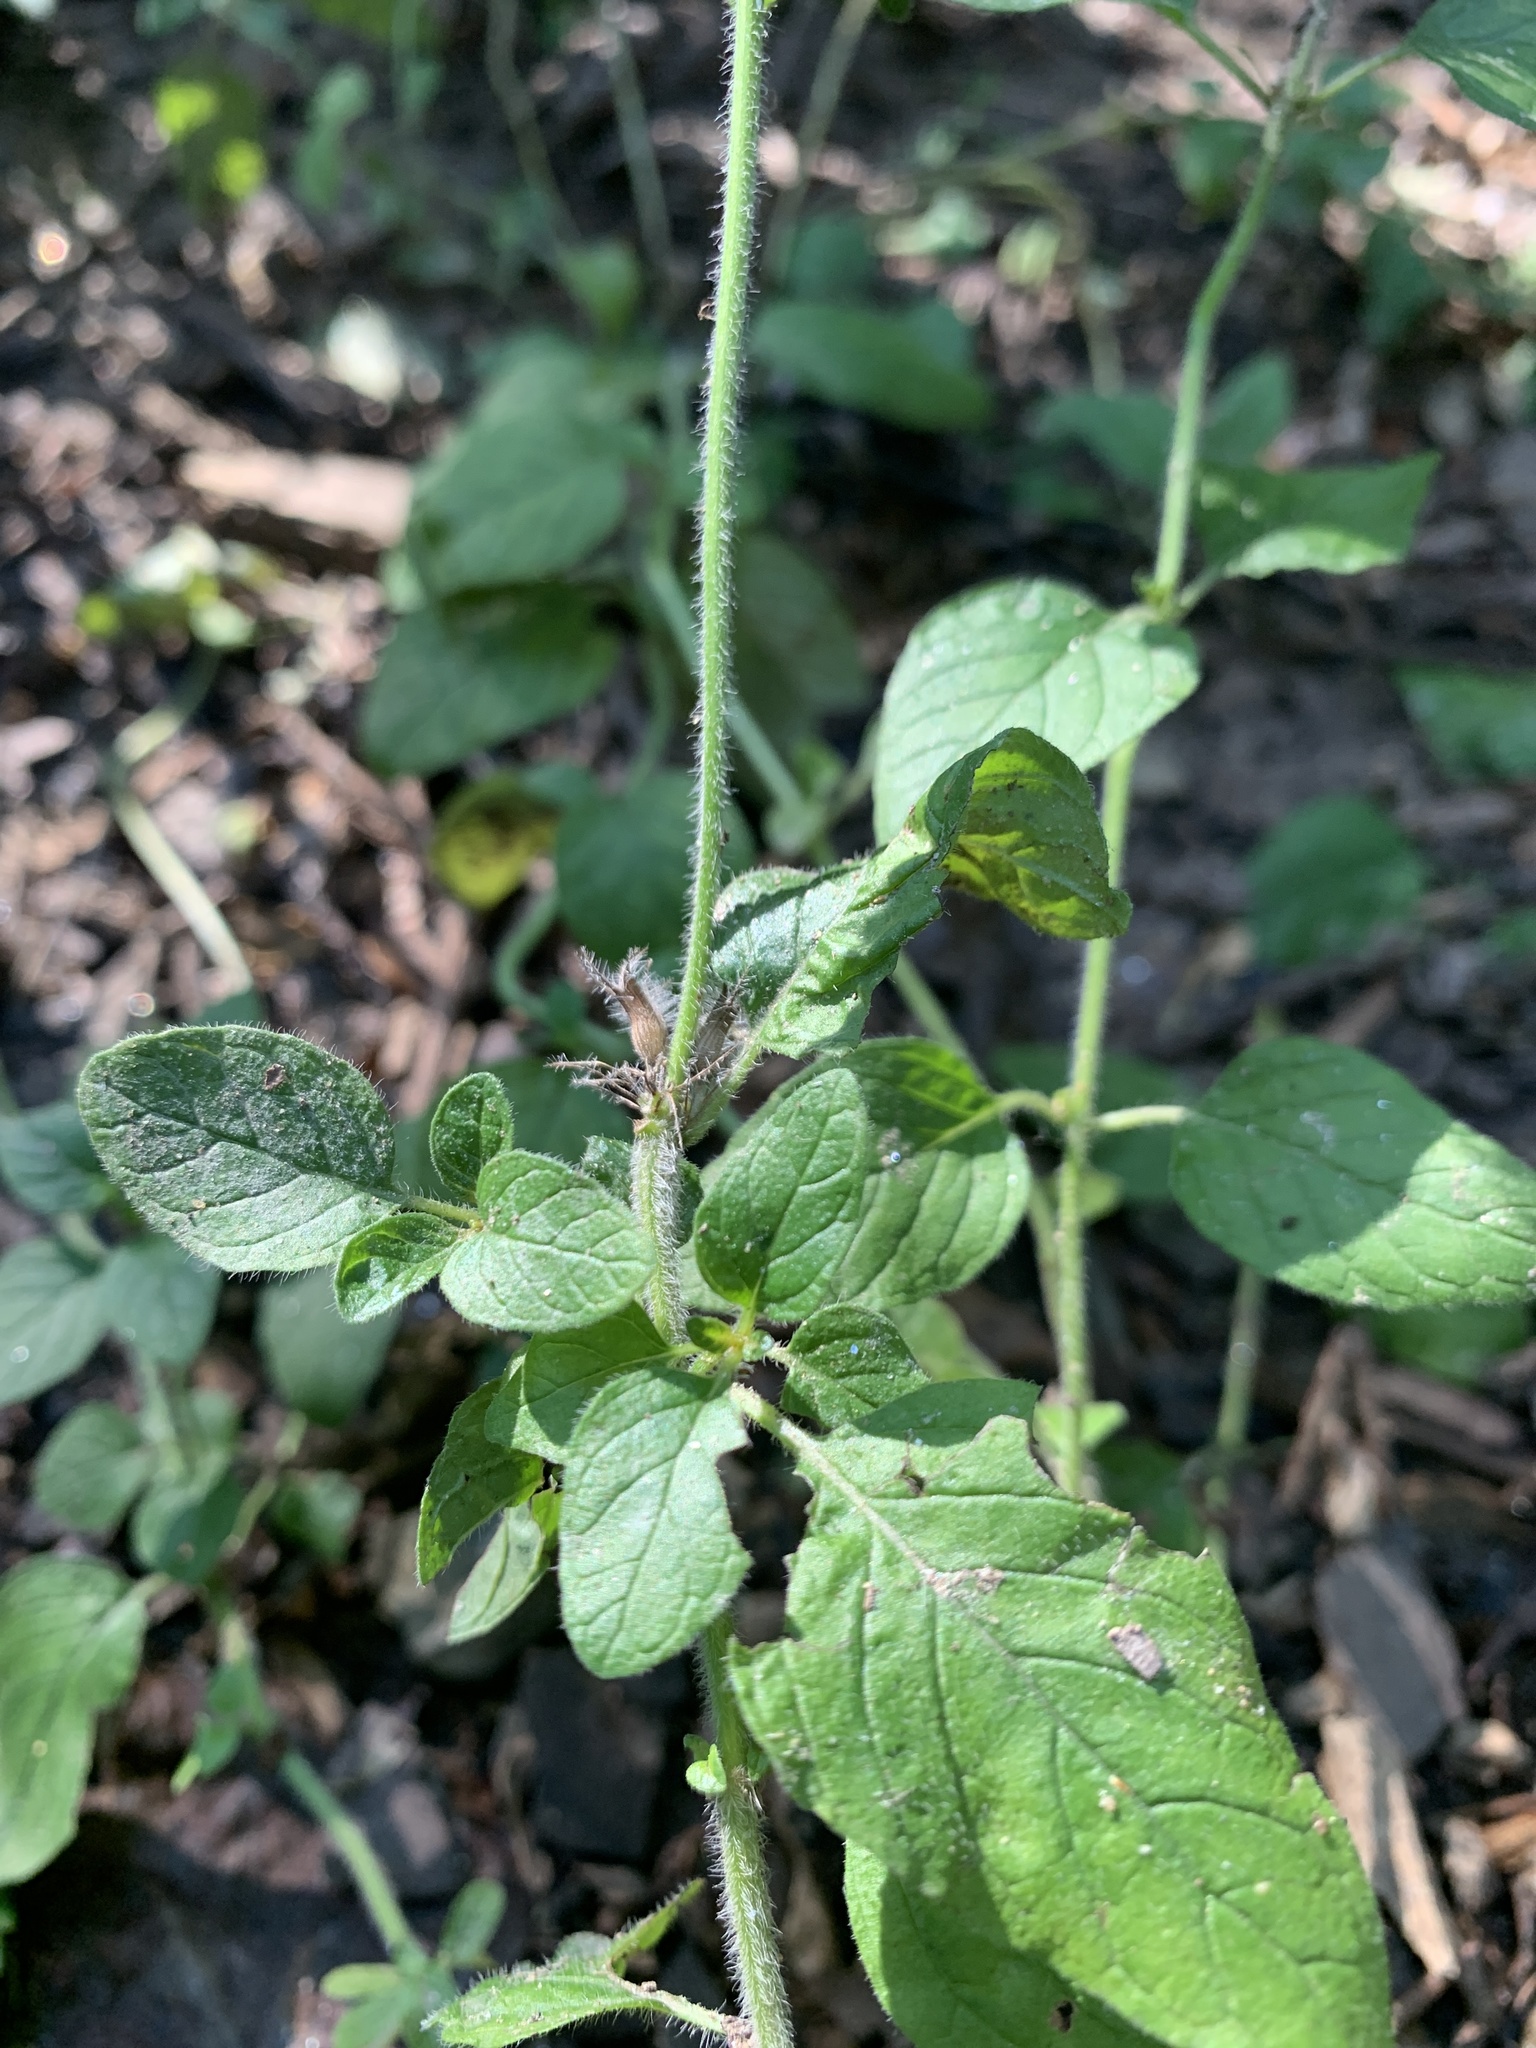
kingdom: Plantae
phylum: Tracheophyta
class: Magnoliopsida
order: Lamiales
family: Lamiaceae
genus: Clinopodium
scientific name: Clinopodium vulgare
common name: Wild basil
